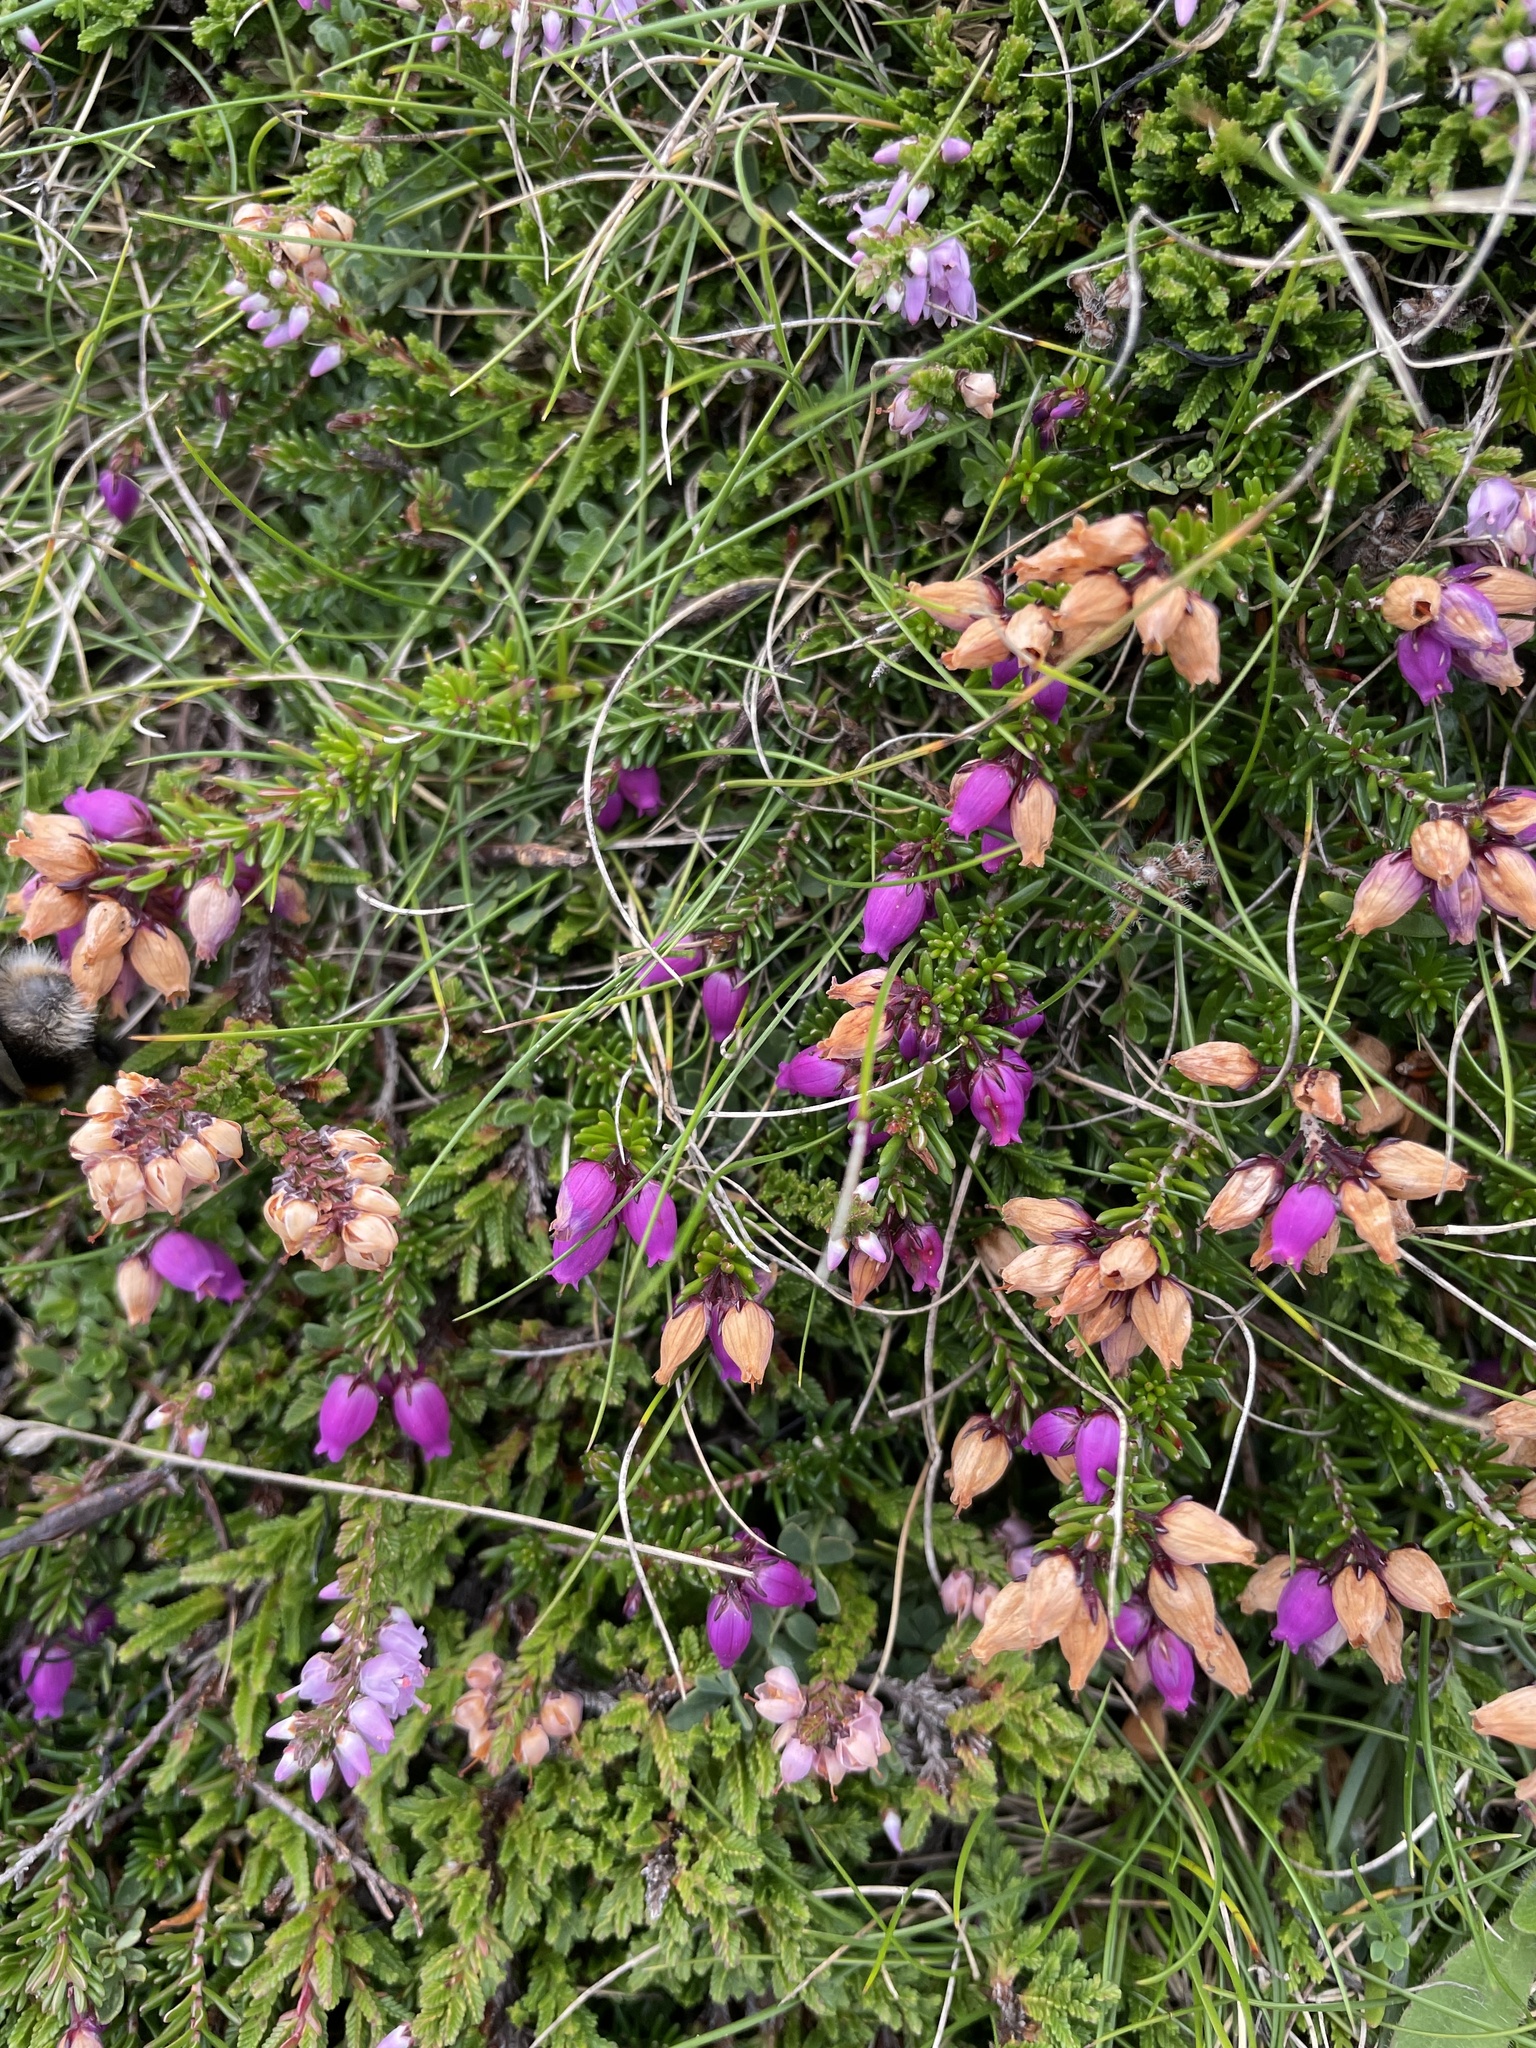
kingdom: Plantae
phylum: Tracheophyta
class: Magnoliopsida
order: Ericales
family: Ericaceae
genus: Erica
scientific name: Erica cinerea
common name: Bell heather
